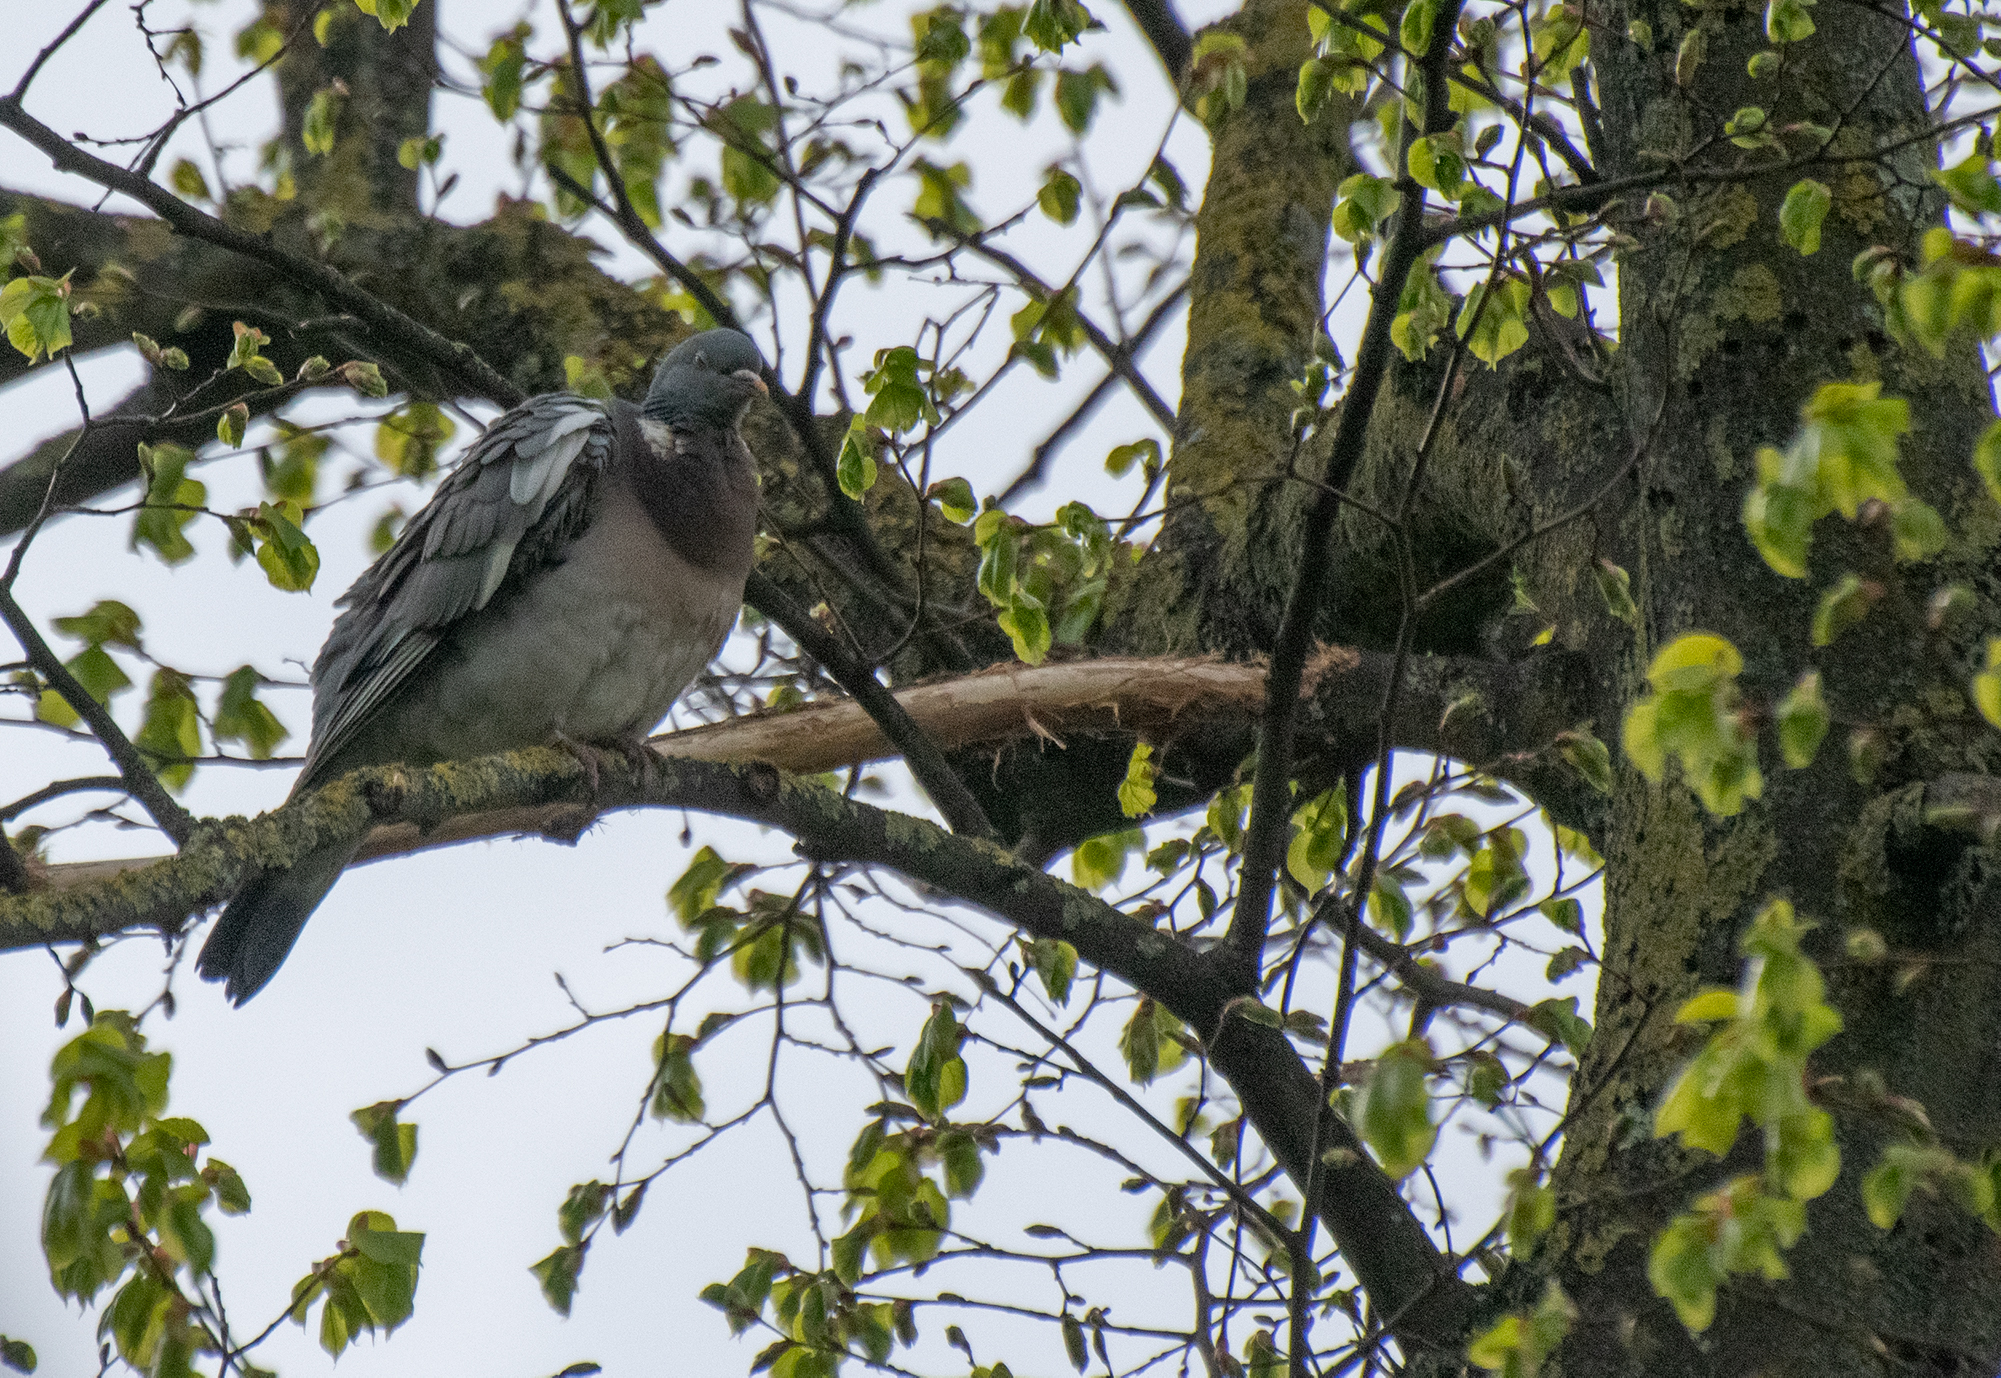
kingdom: Animalia
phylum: Chordata
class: Aves
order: Columbiformes
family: Columbidae
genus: Columba
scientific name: Columba palumbus
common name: Common wood pigeon
